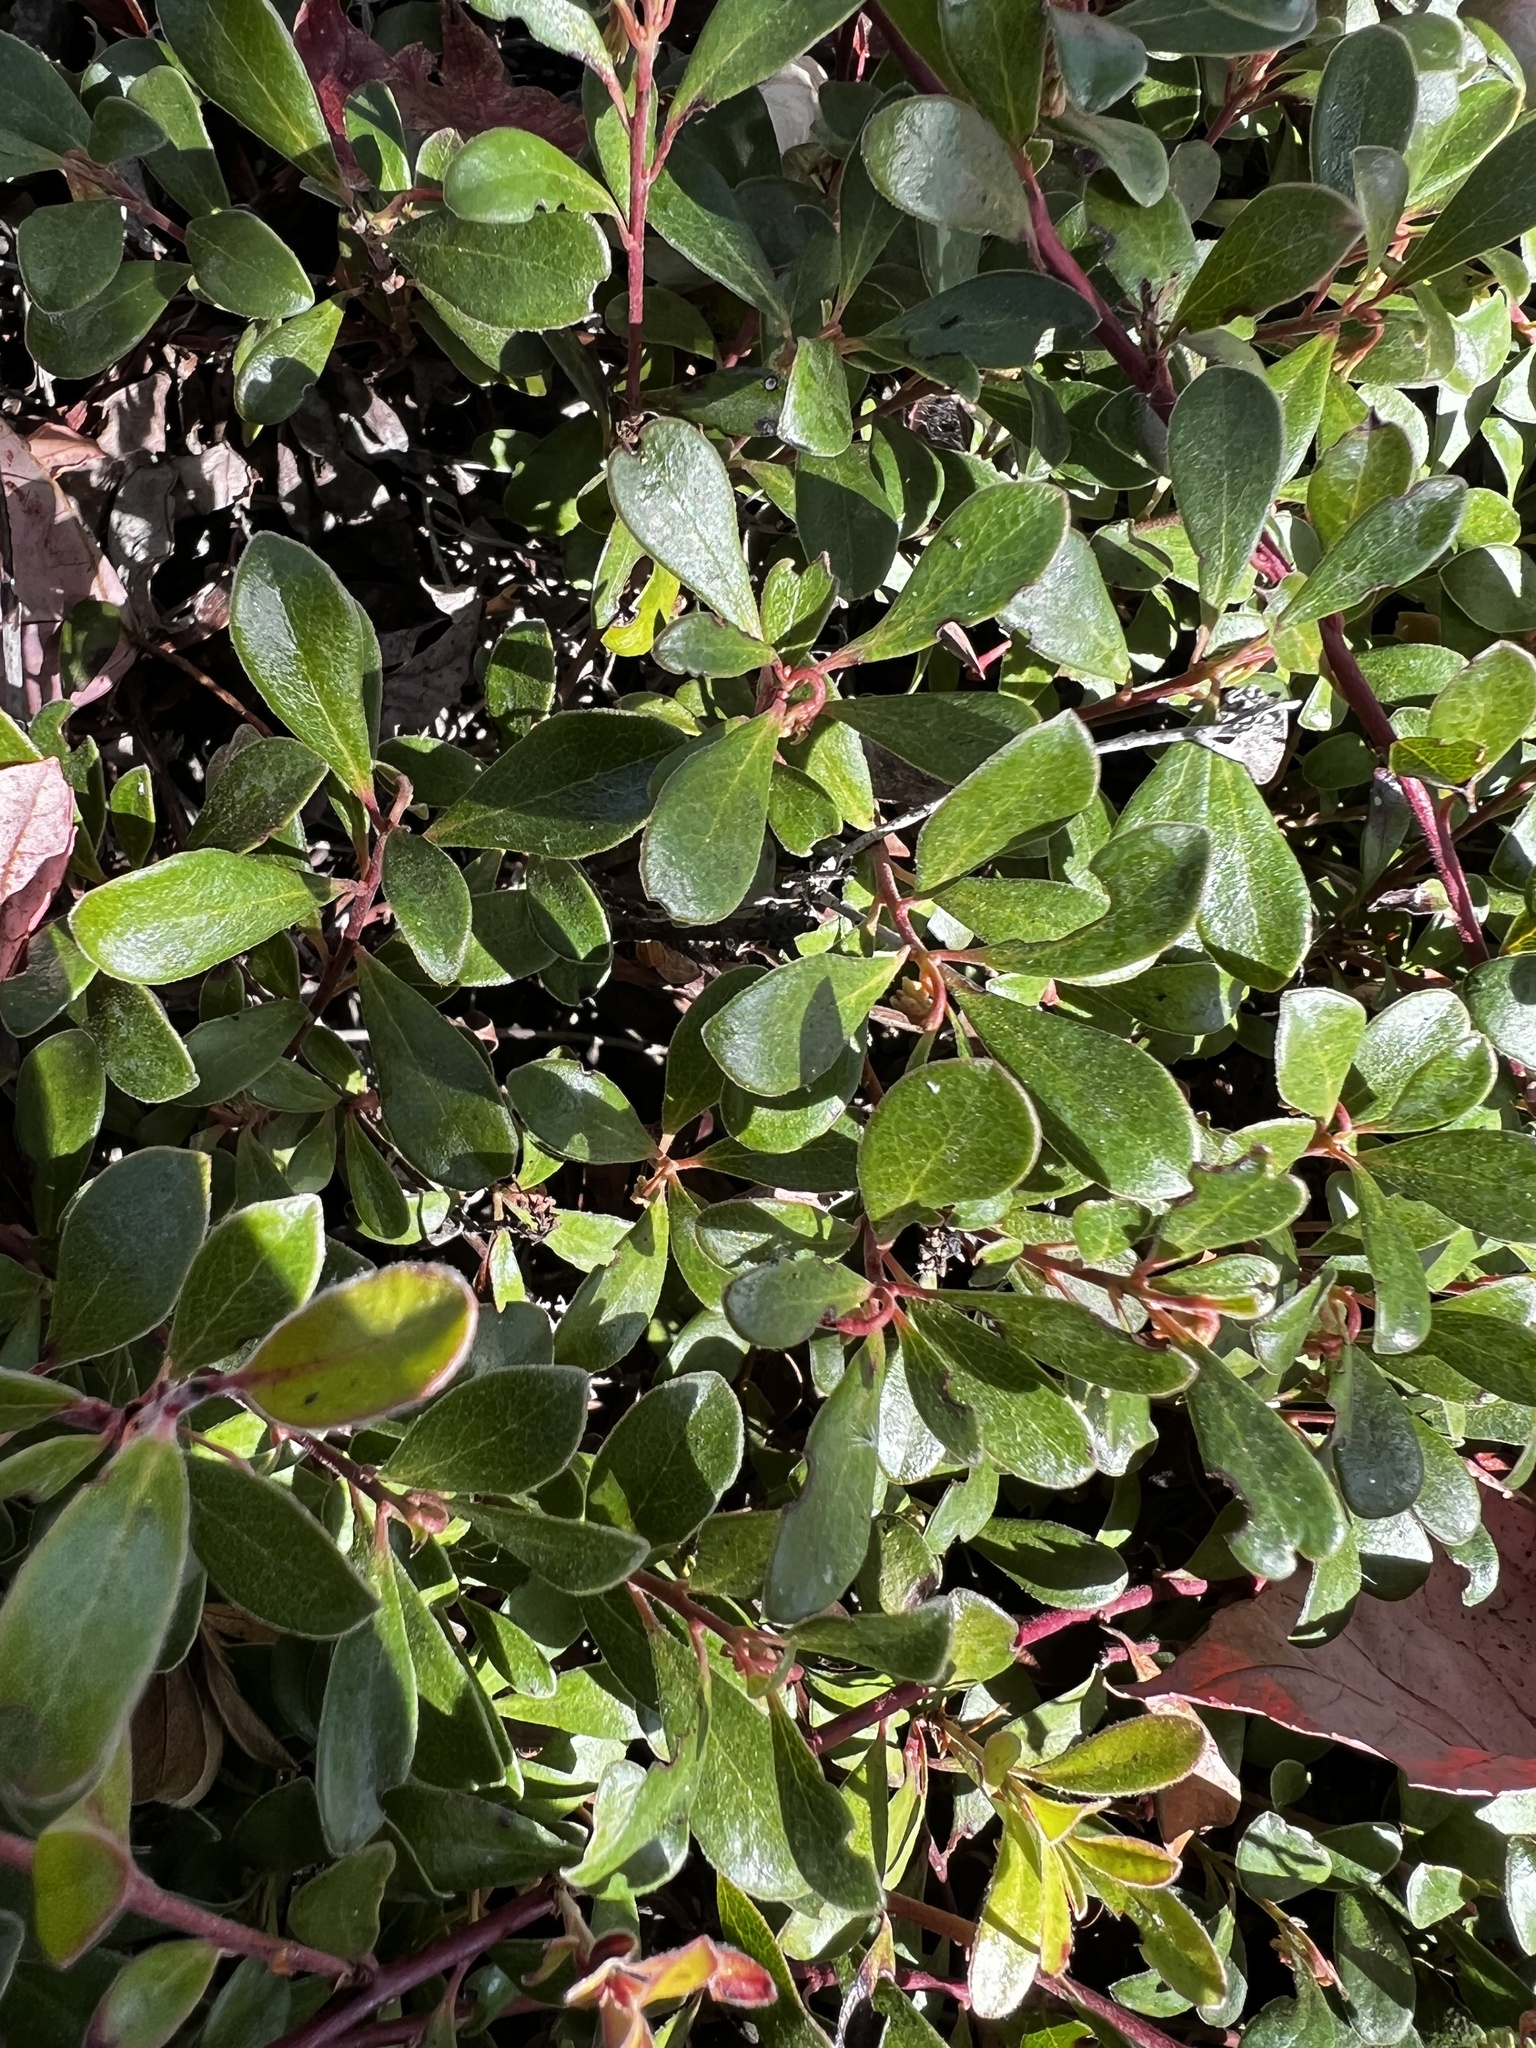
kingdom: Plantae
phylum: Tracheophyta
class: Magnoliopsida
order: Ericales
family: Ericaceae
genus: Arctostaphylos
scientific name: Arctostaphylos uva-ursi
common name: Bearberry
